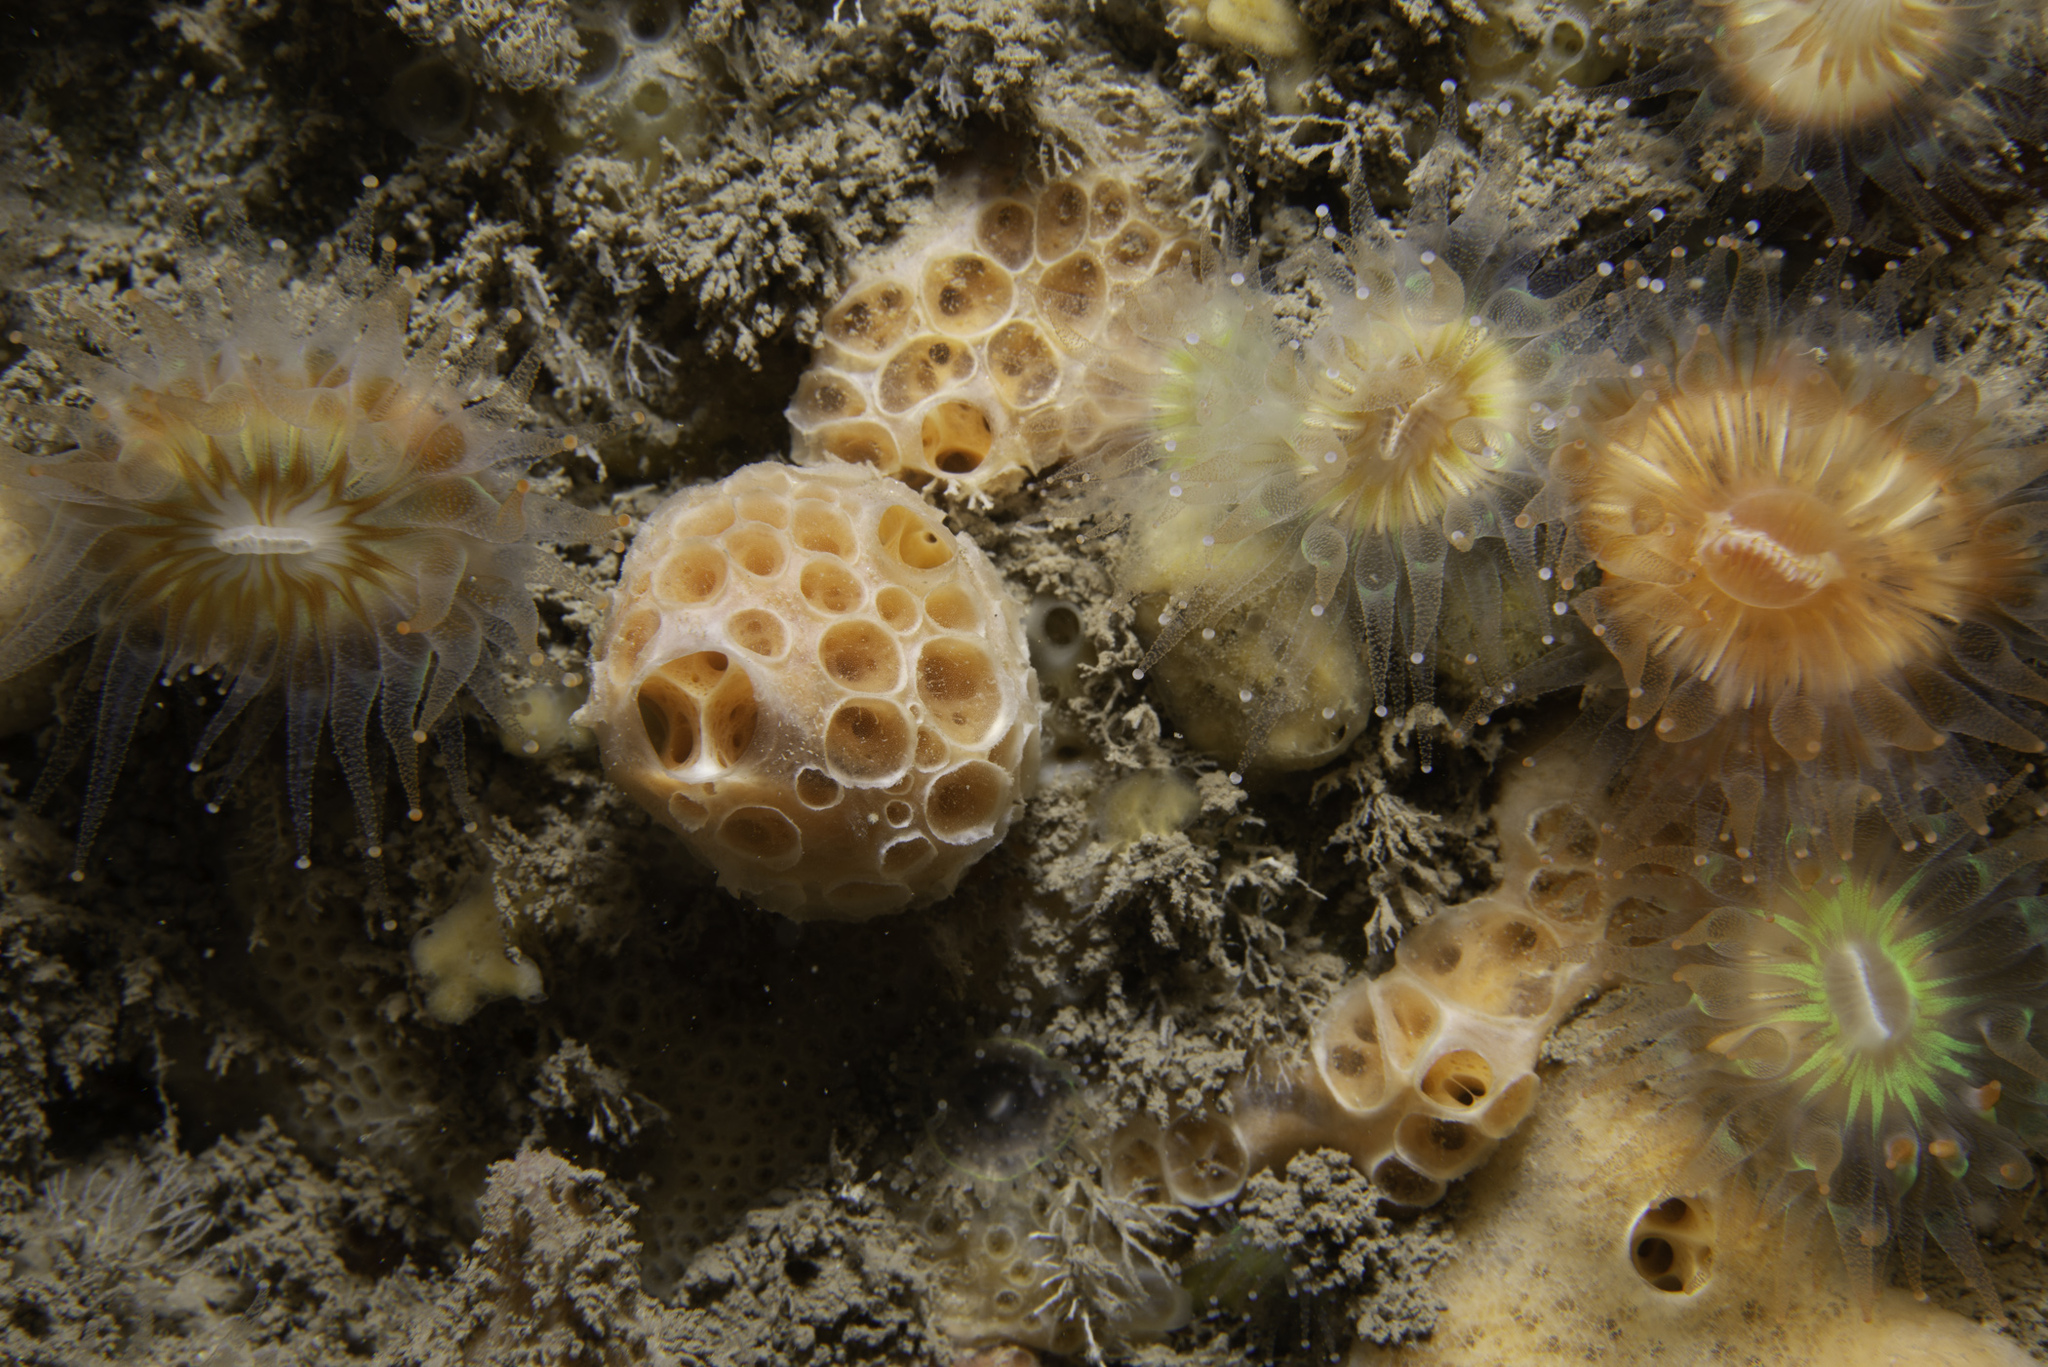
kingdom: Animalia
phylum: Porifera
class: Demospongiae
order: Poecilosclerida
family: Hymedesmiidae
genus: Hemimycale
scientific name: Hemimycale columella
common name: Crater sponge
